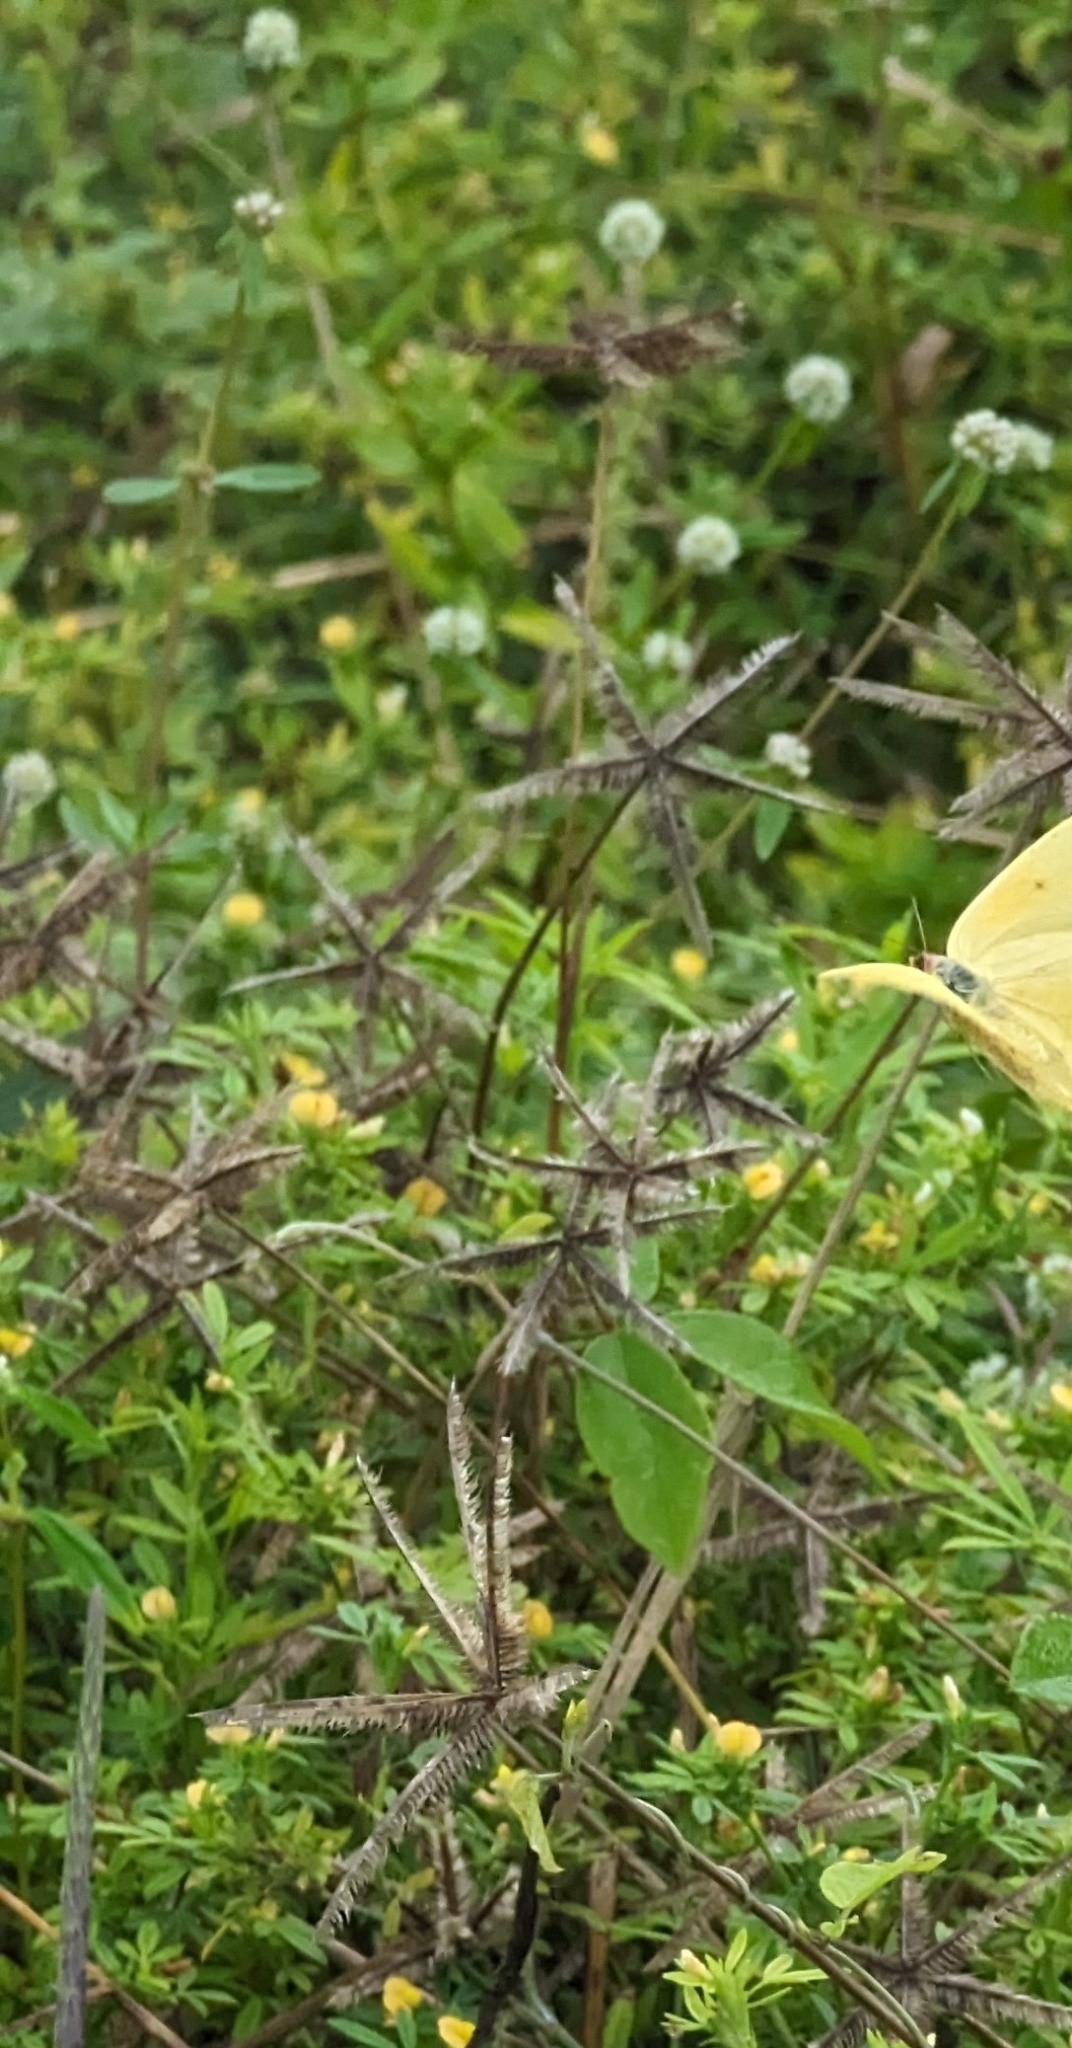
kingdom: Plantae
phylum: Tracheophyta
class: Liliopsida
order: Poales
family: Poaceae
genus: Dactyloctenium
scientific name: Dactyloctenium aegyptium
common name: Egyptian grass
